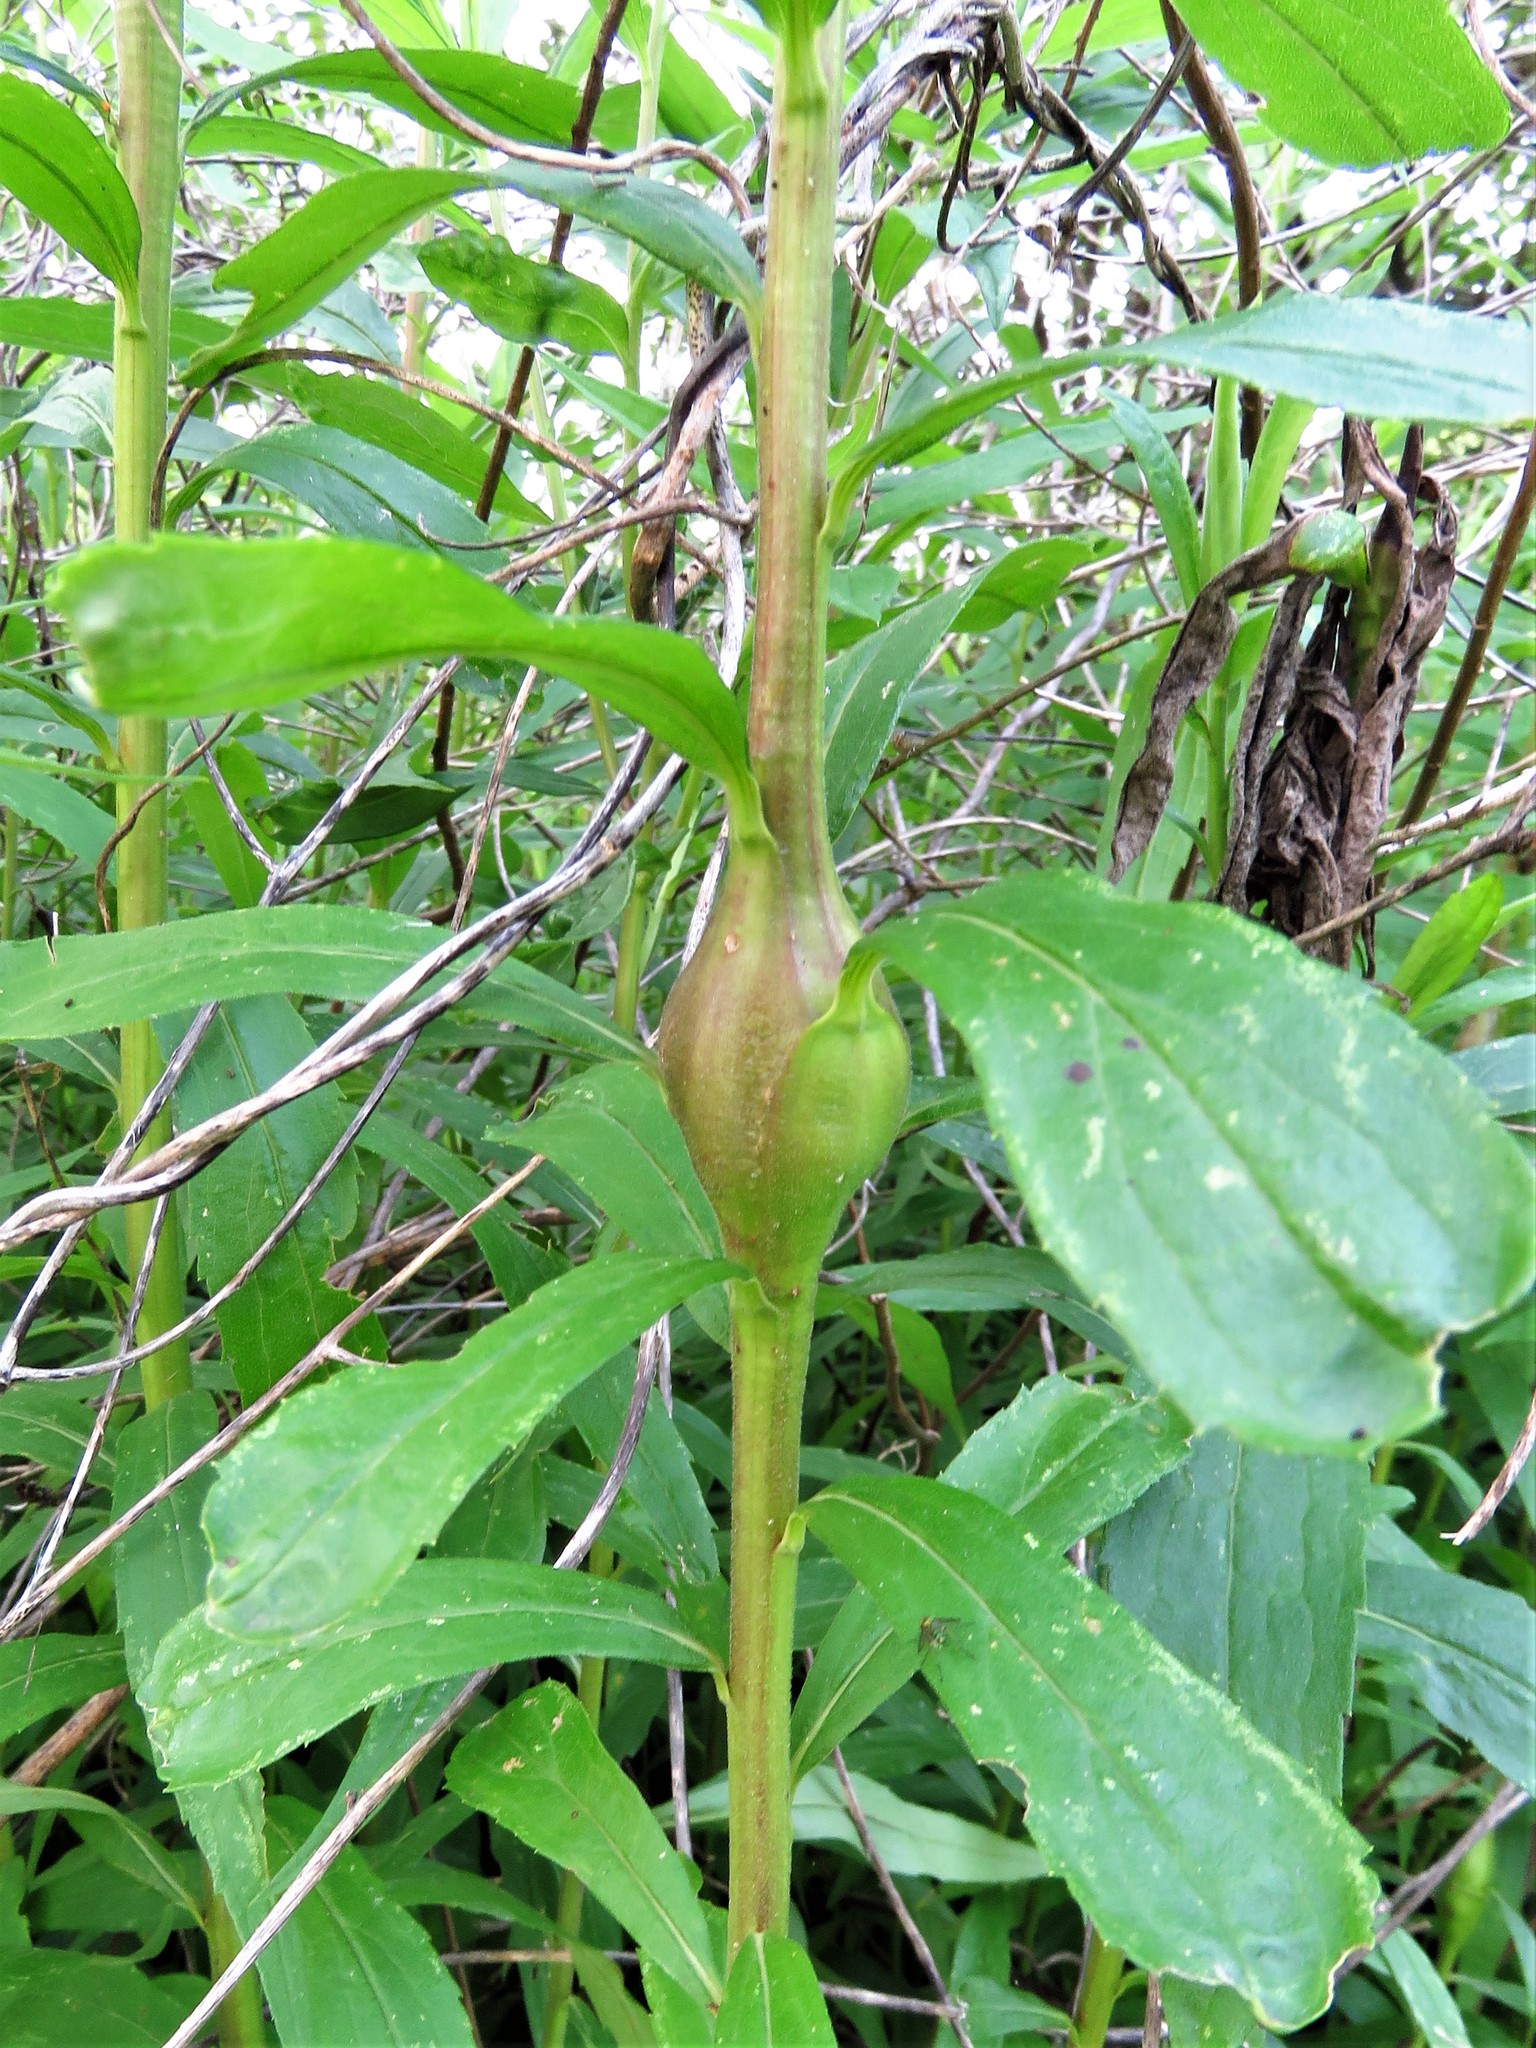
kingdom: Animalia
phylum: Arthropoda
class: Insecta
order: Diptera
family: Tephritidae
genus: Eurosta
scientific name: Eurosta solidaginis
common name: Goldenrod gall fly
